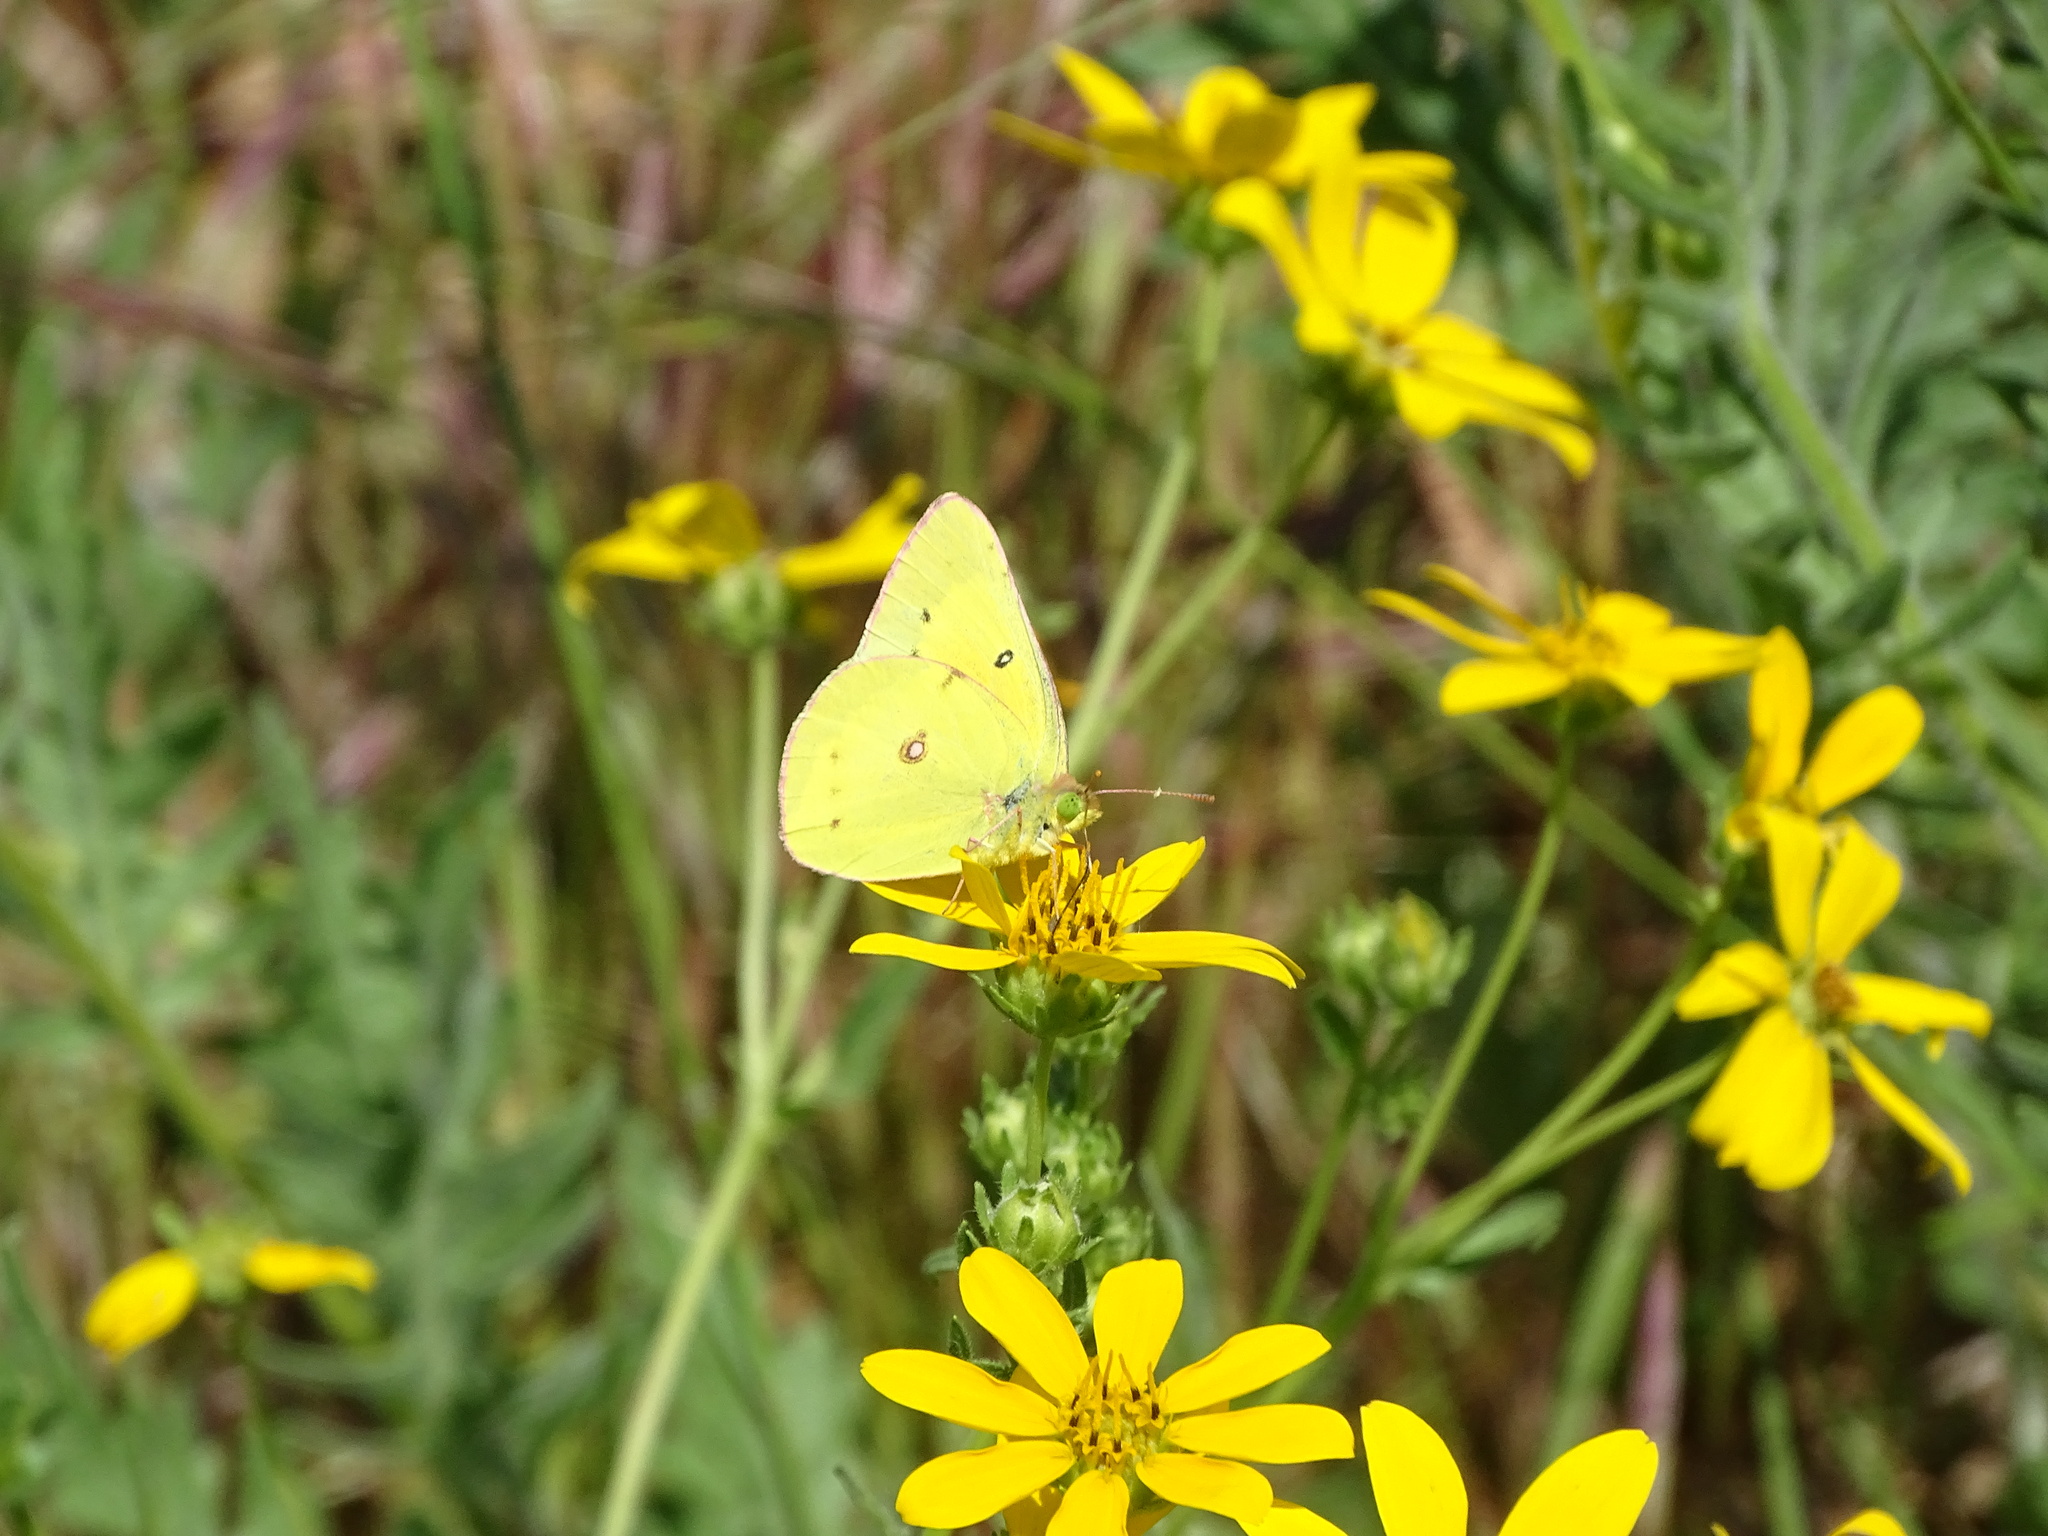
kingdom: Animalia
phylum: Arthropoda
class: Insecta
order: Lepidoptera
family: Pieridae
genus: Colias
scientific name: Colias eurytheme
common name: Alfalfa butterfly
